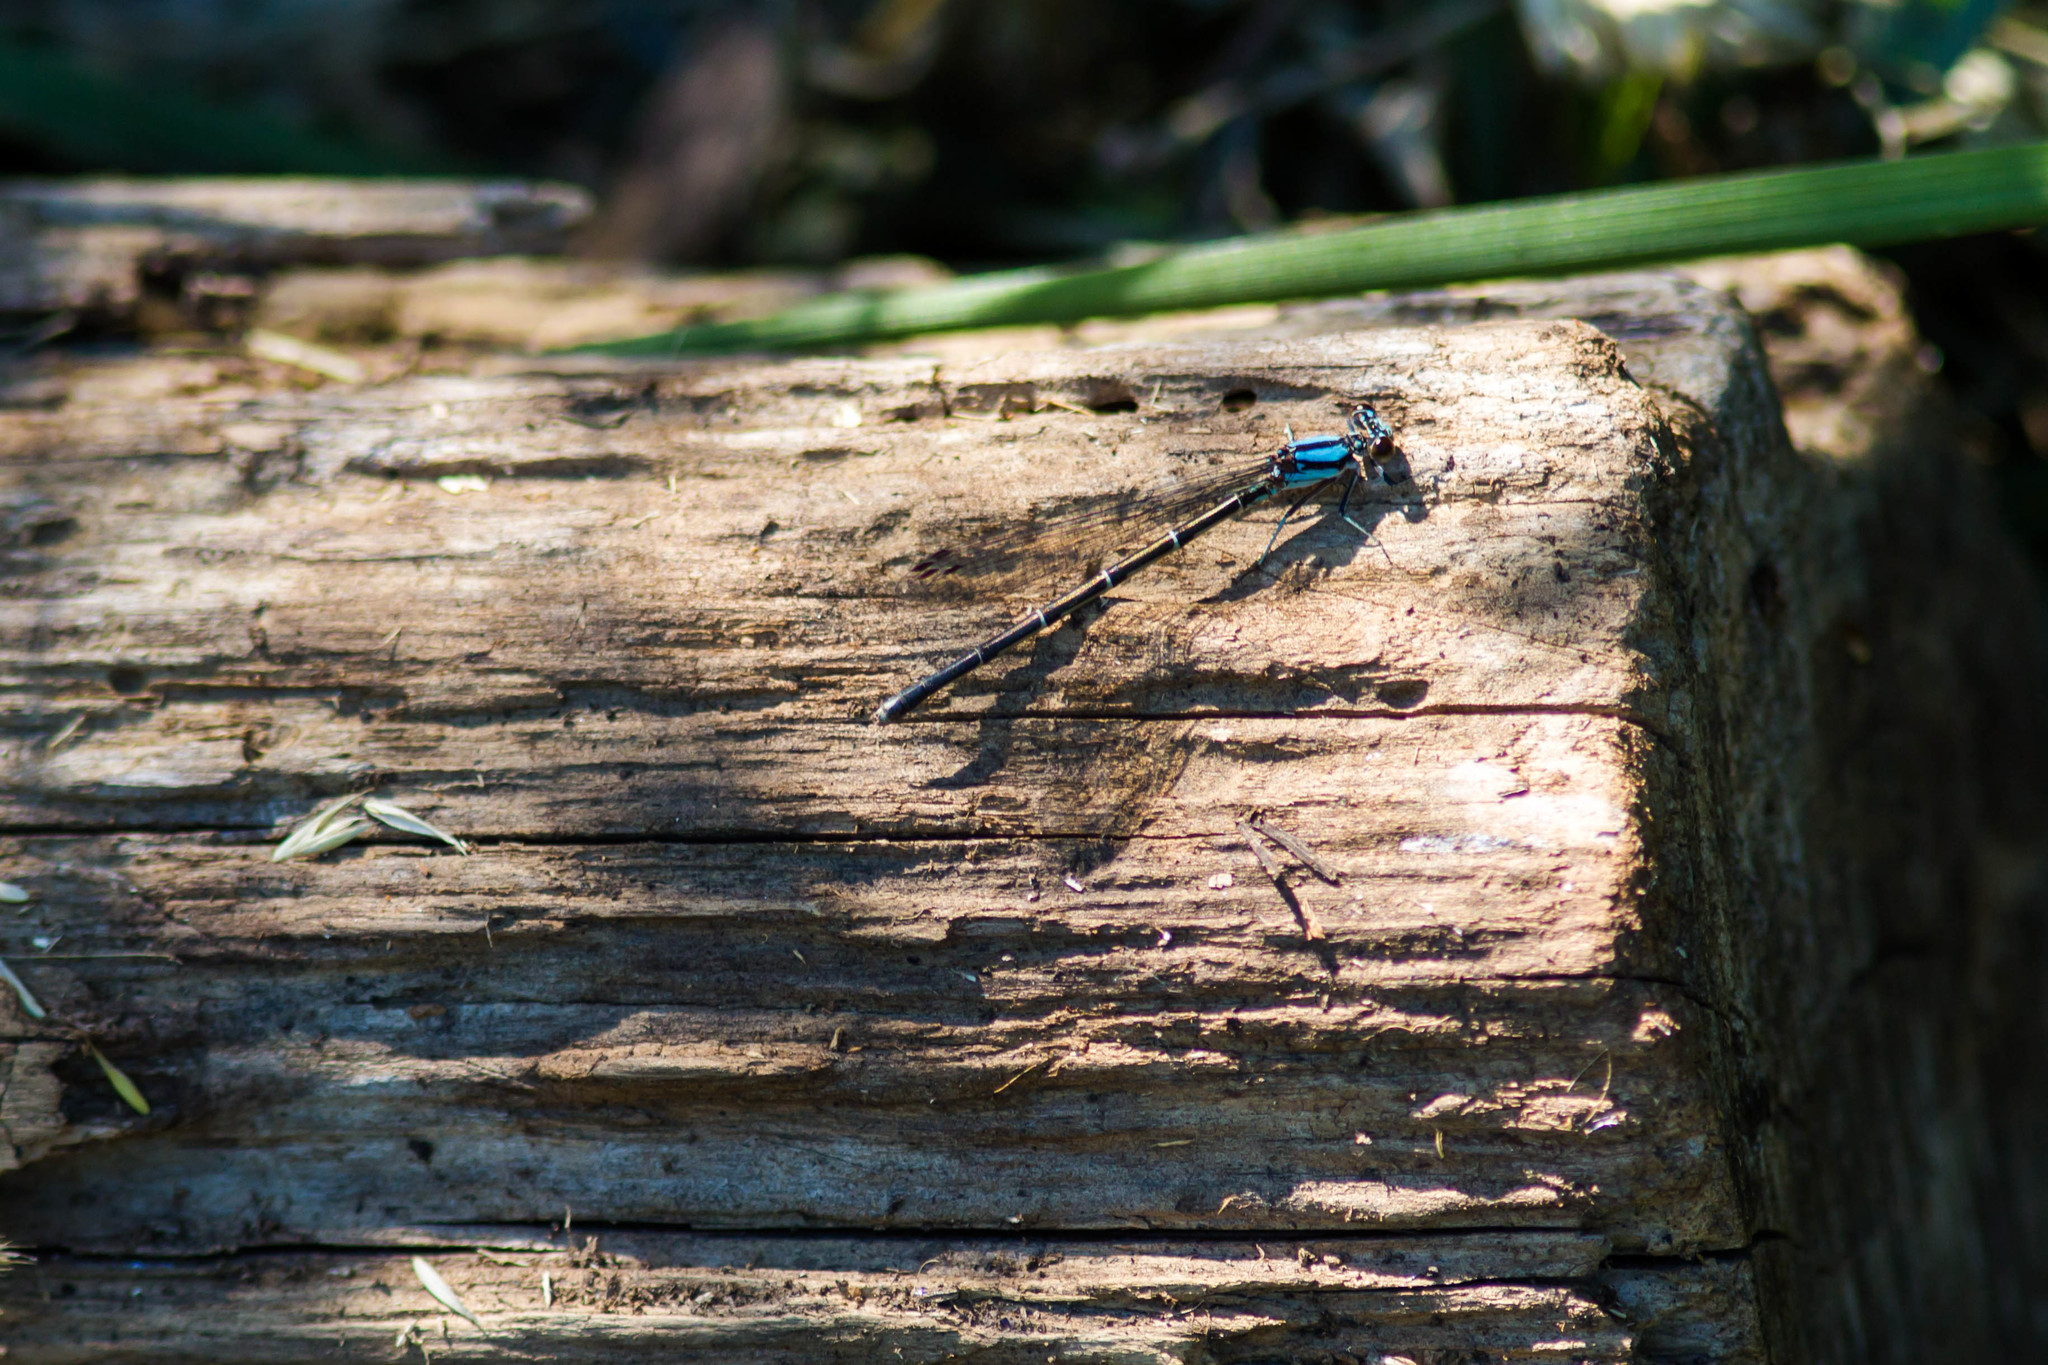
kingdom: Animalia
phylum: Arthropoda
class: Insecta
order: Odonata
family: Coenagrionidae
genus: Argia
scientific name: Argia tibialis
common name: Blue-tipped dancer
